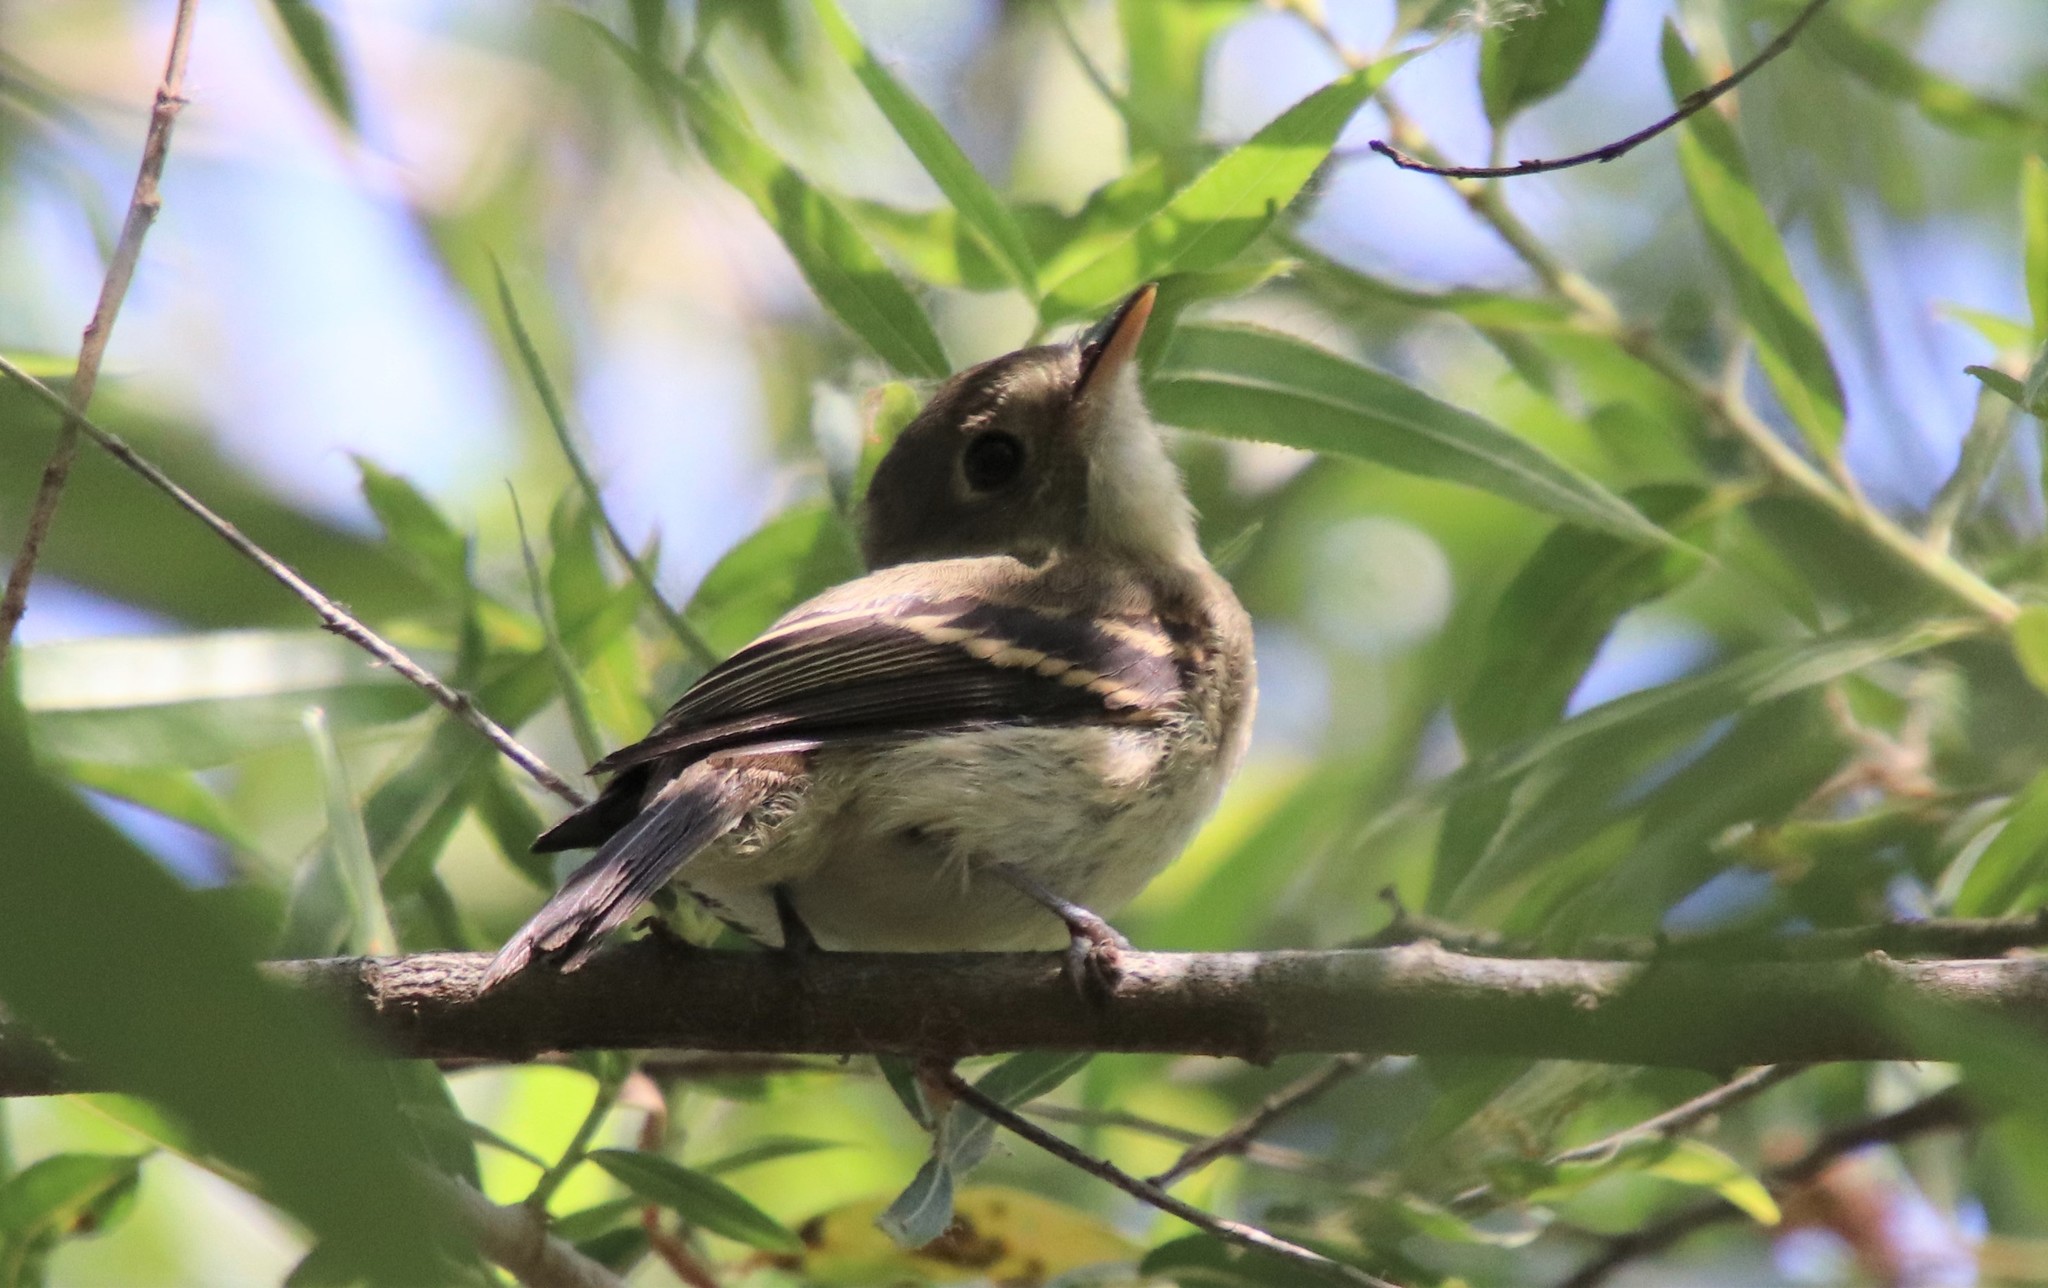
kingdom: Animalia
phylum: Chordata
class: Aves
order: Passeriformes
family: Tyrannidae
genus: Empidonax
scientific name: Empidonax difficilis
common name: Pacific-slope flycatcher
